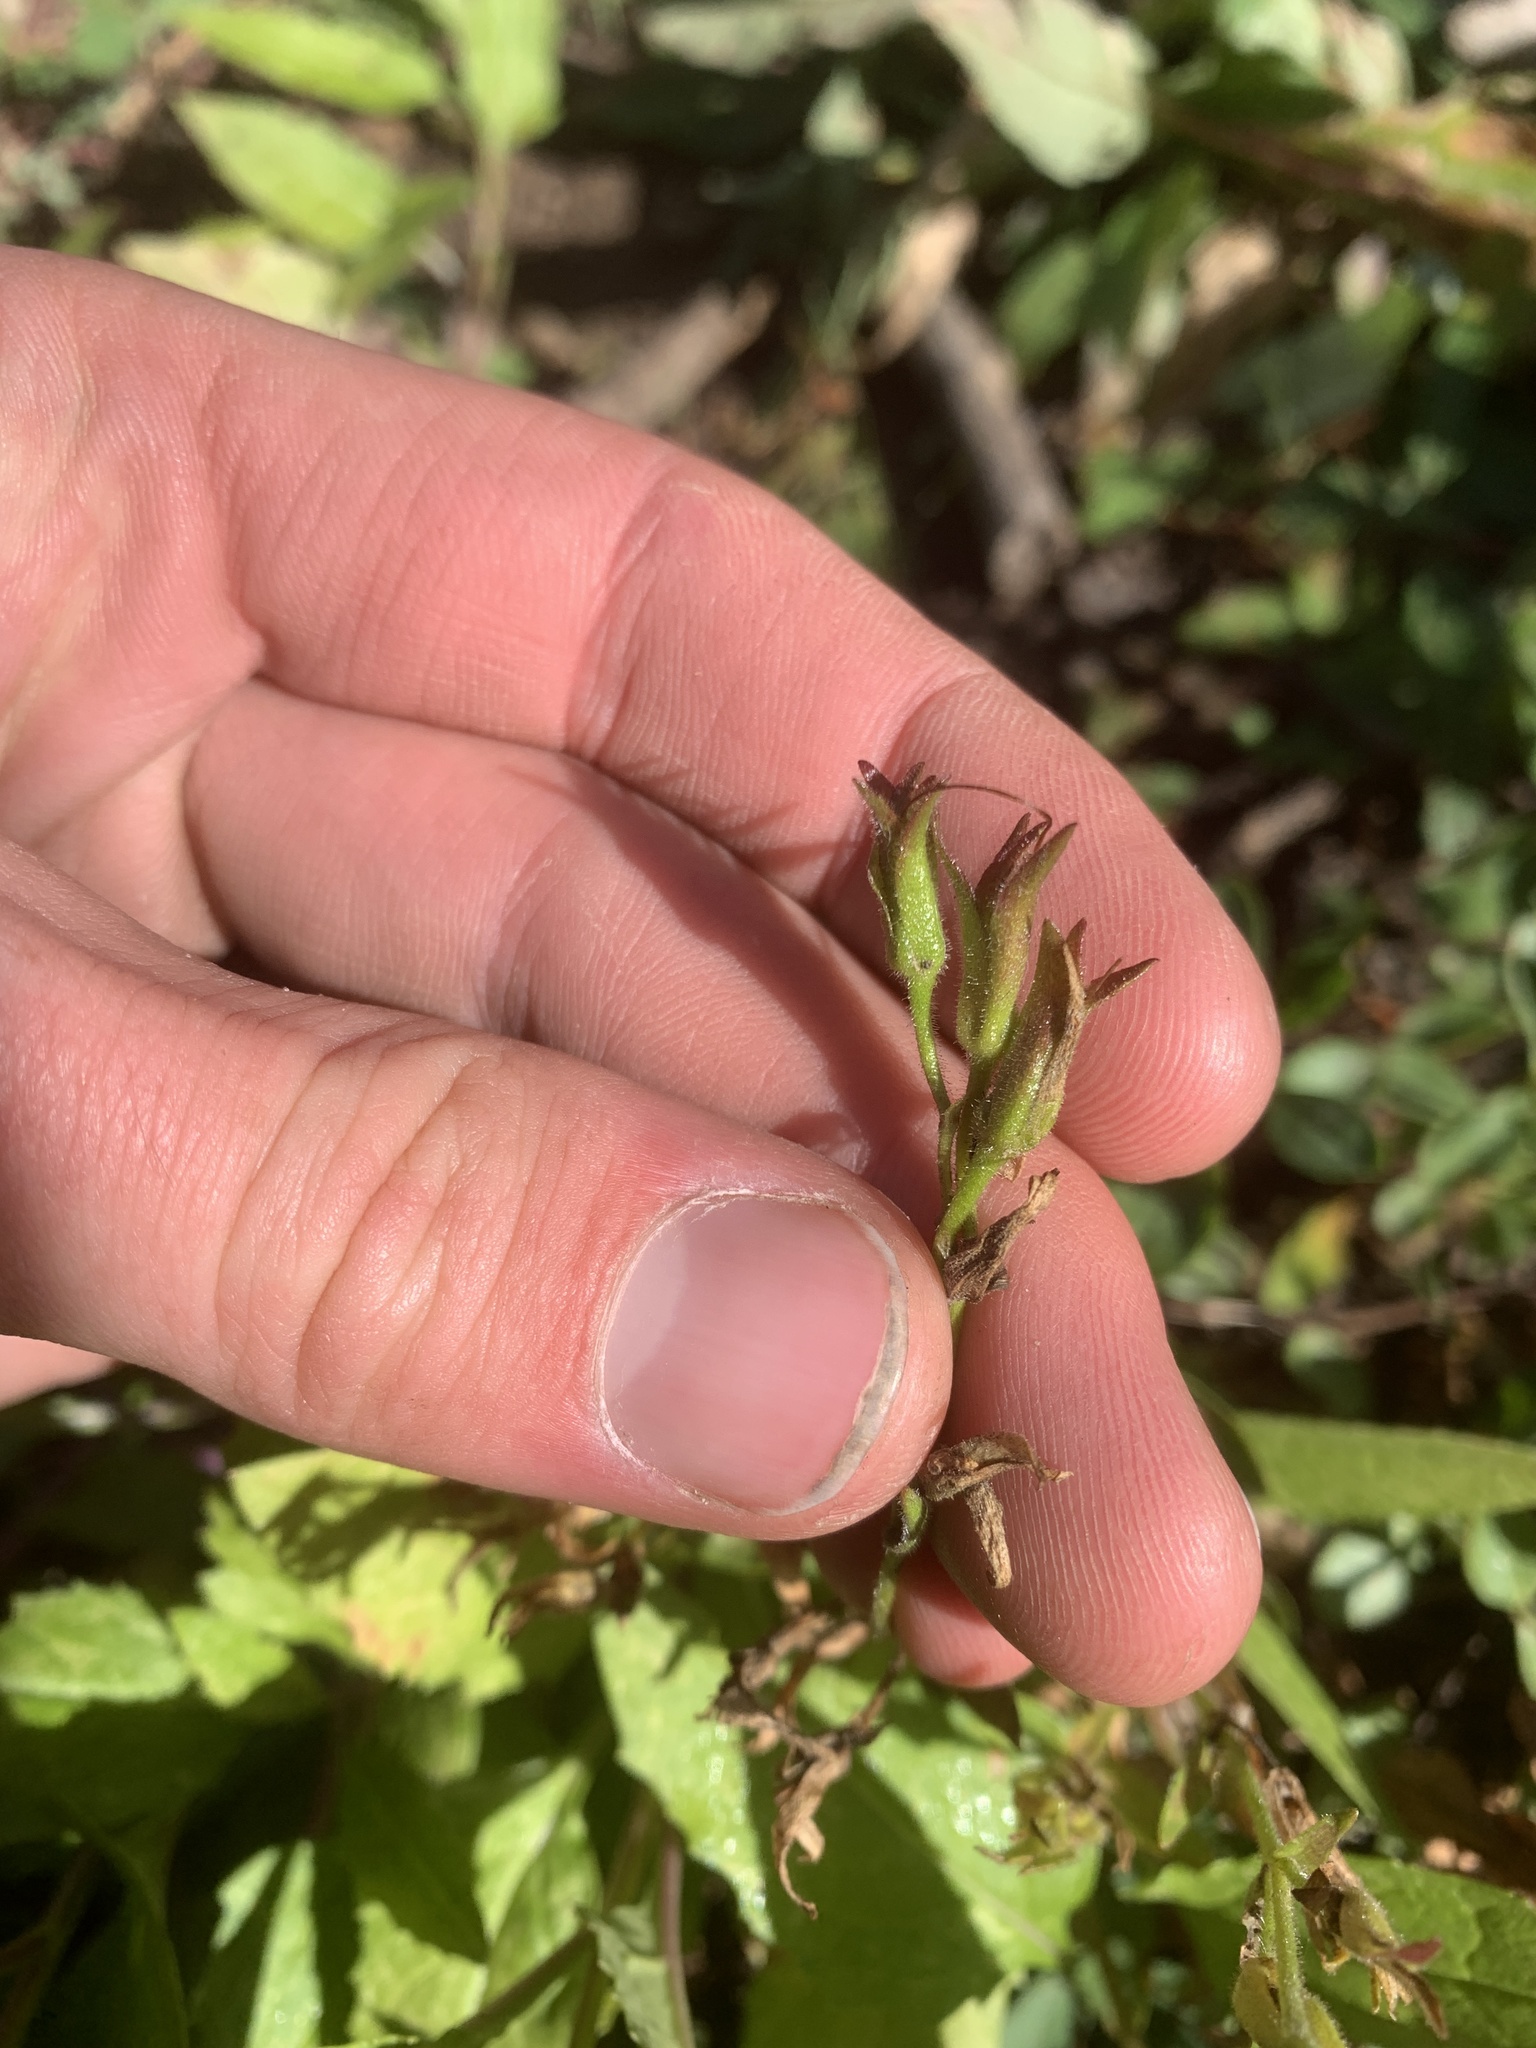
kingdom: Plantae
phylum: Tracheophyta
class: Magnoliopsida
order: Lamiales
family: Plantaginaceae
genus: Penstemon
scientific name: Penstemon ellipticus
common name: Alpine beardtongue
